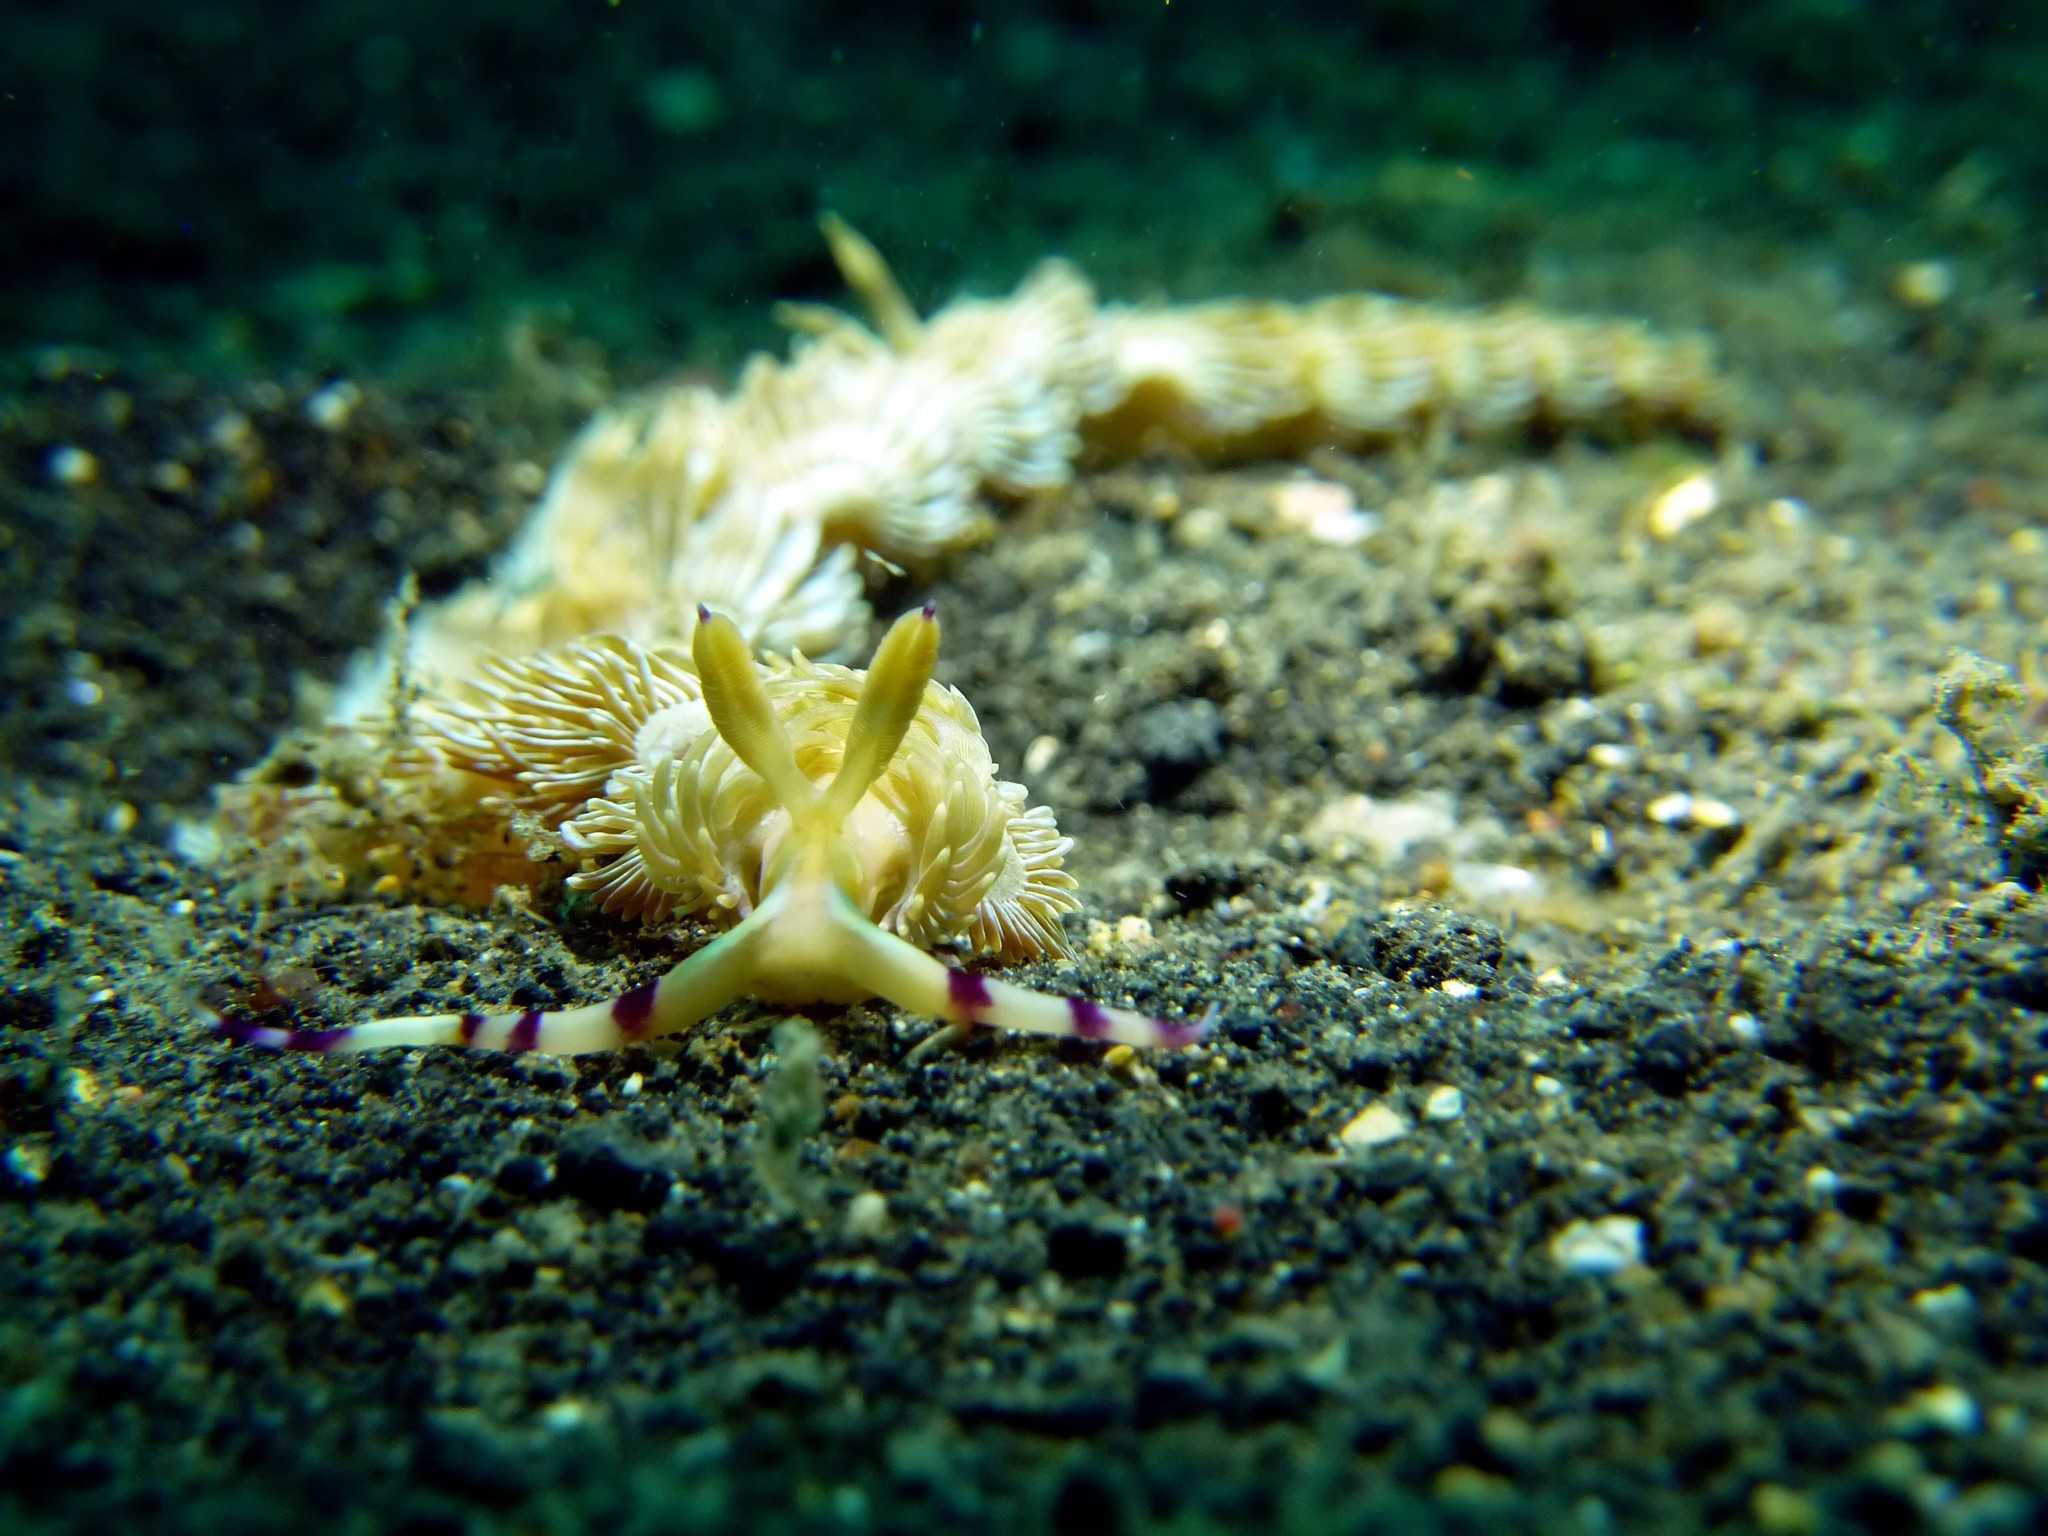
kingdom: Animalia
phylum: Mollusca
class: Gastropoda
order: Nudibranchia
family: Facelinidae
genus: Pteraeolidia
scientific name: Pteraeolidia semperi
